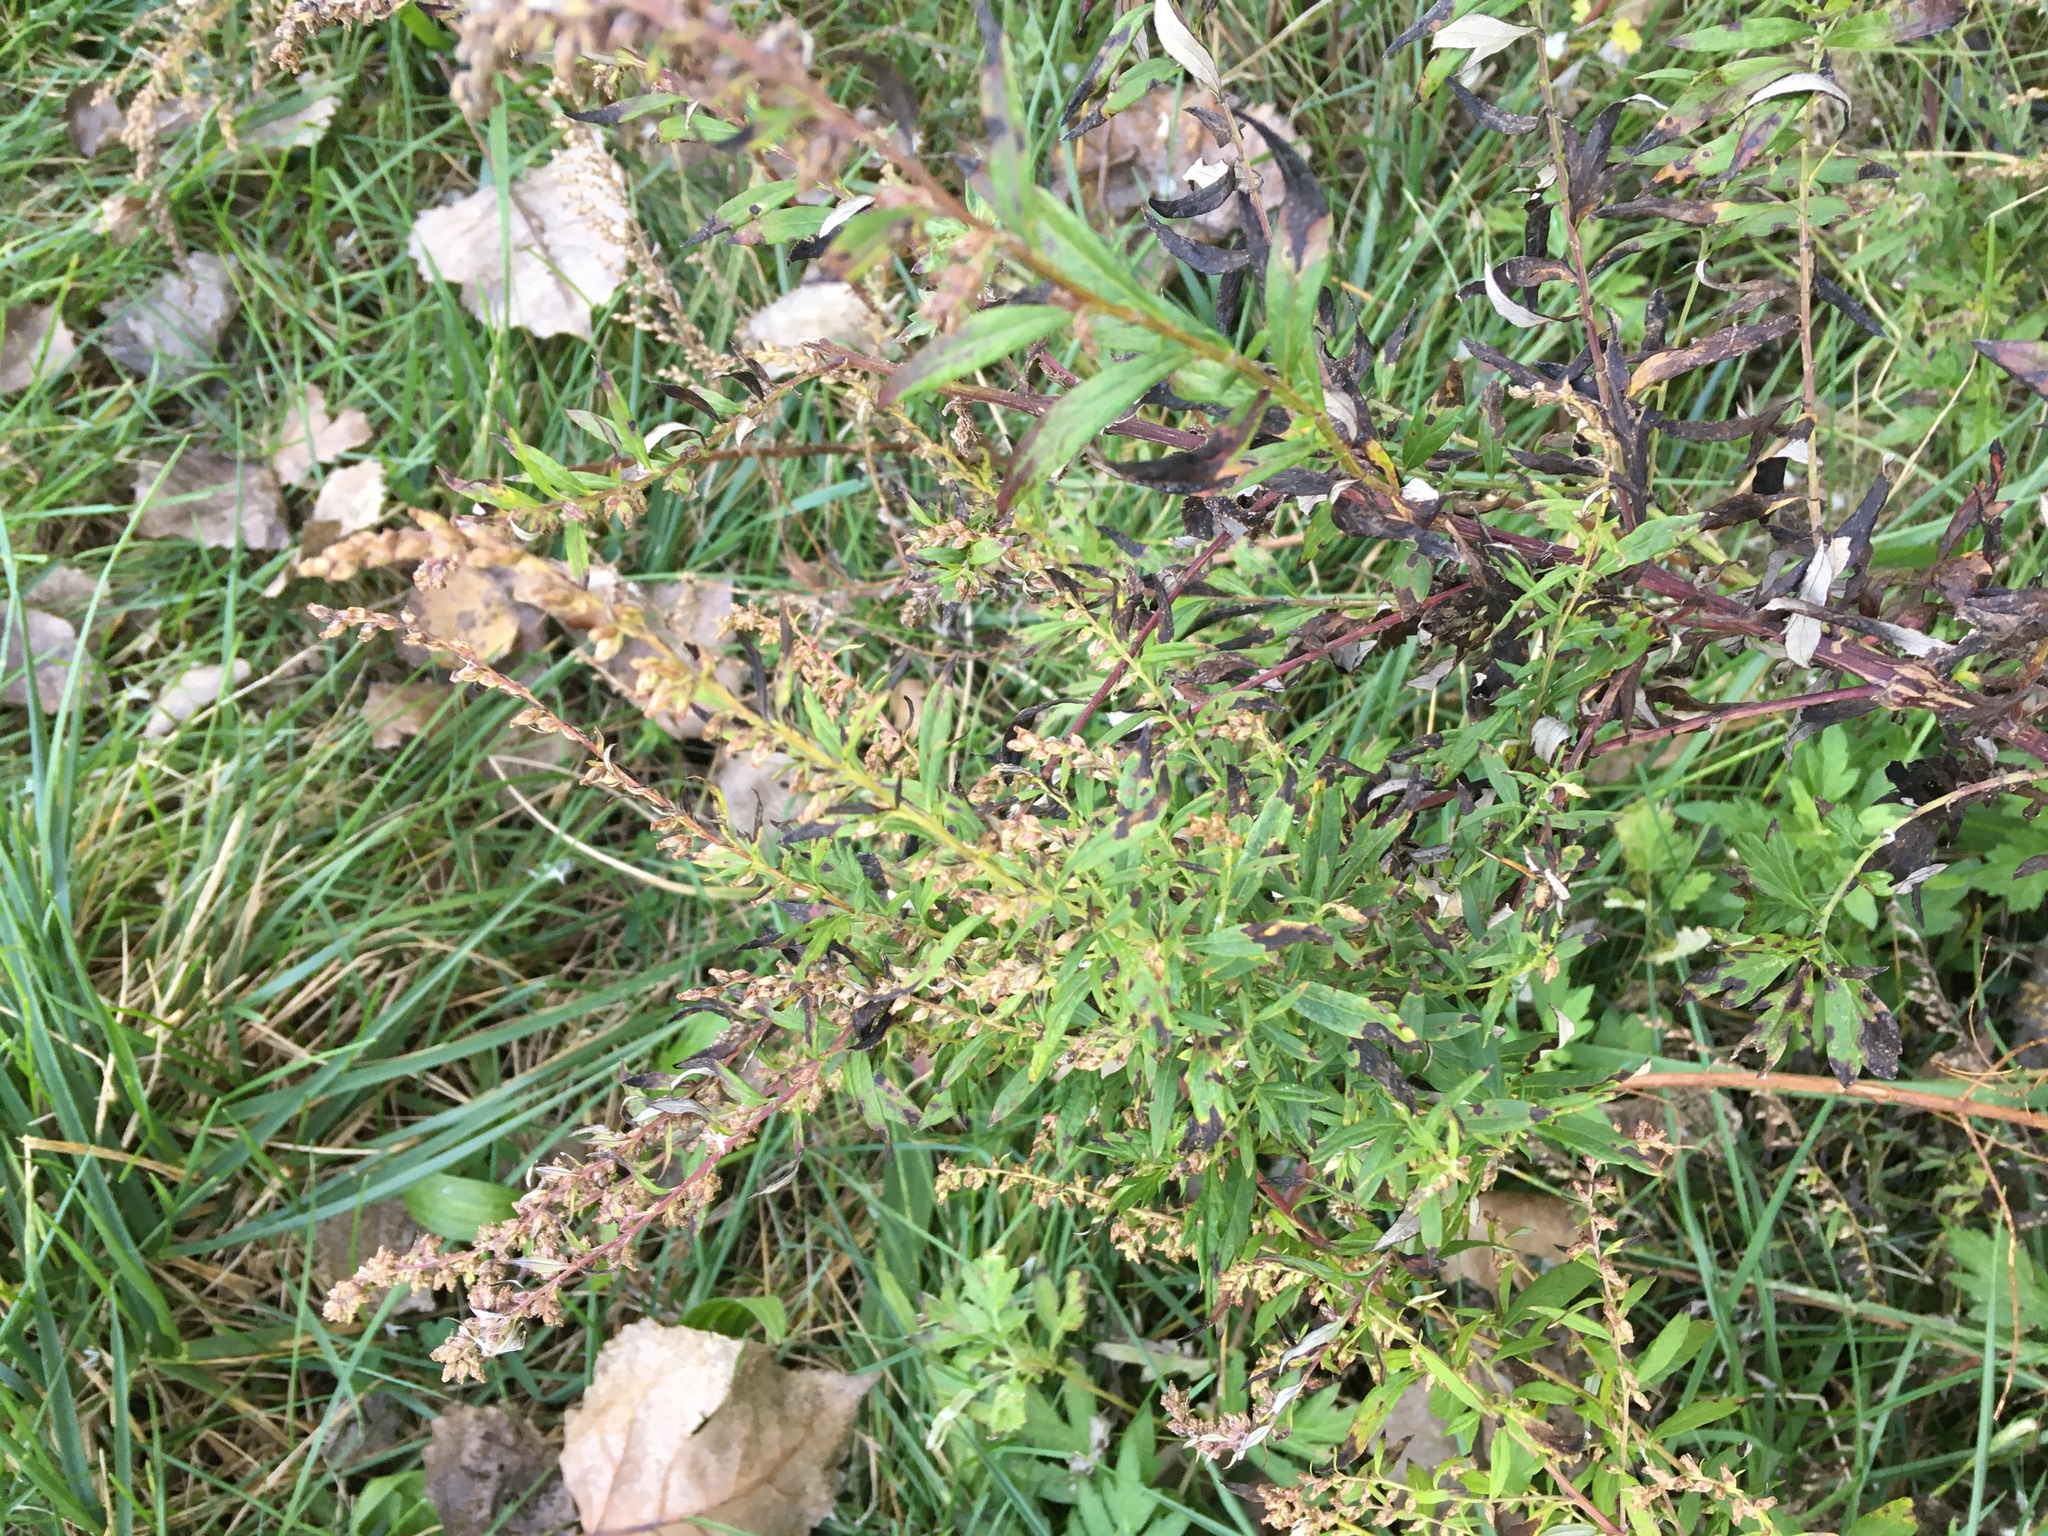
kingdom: Plantae
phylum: Tracheophyta
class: Magnoliopsida
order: Asterales
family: Asteraceae
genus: Artemisia
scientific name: Artemisia vulgaris
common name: Mugwort
